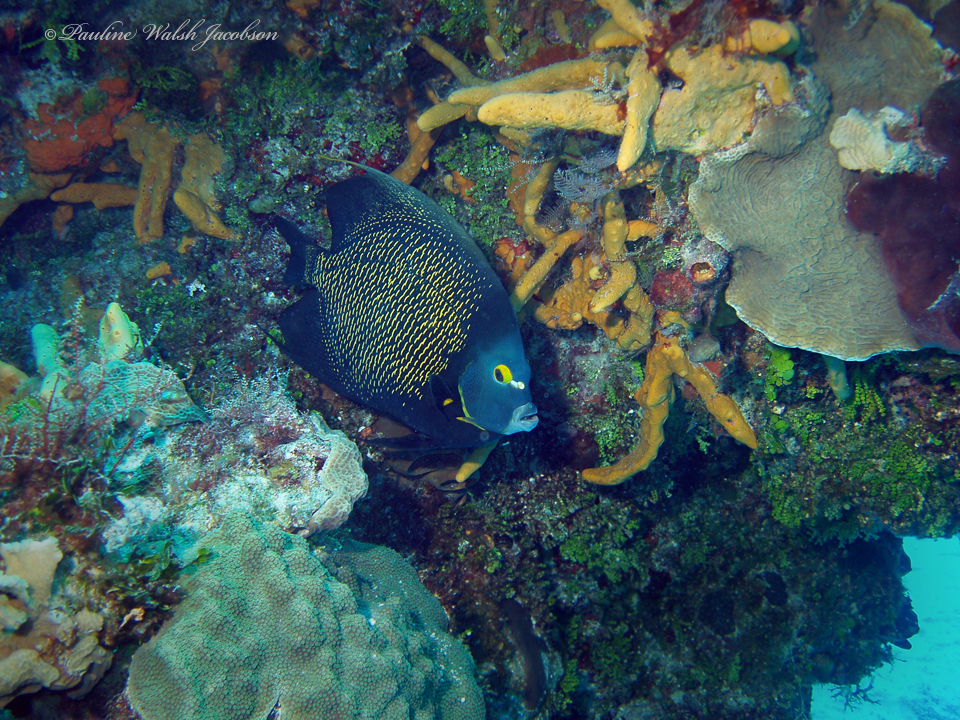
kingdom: Animalia
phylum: Chordata
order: Perciformes
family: Pomacanthidae
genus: Pomacanthus
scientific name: Pomacanthus paru
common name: French angelfish
